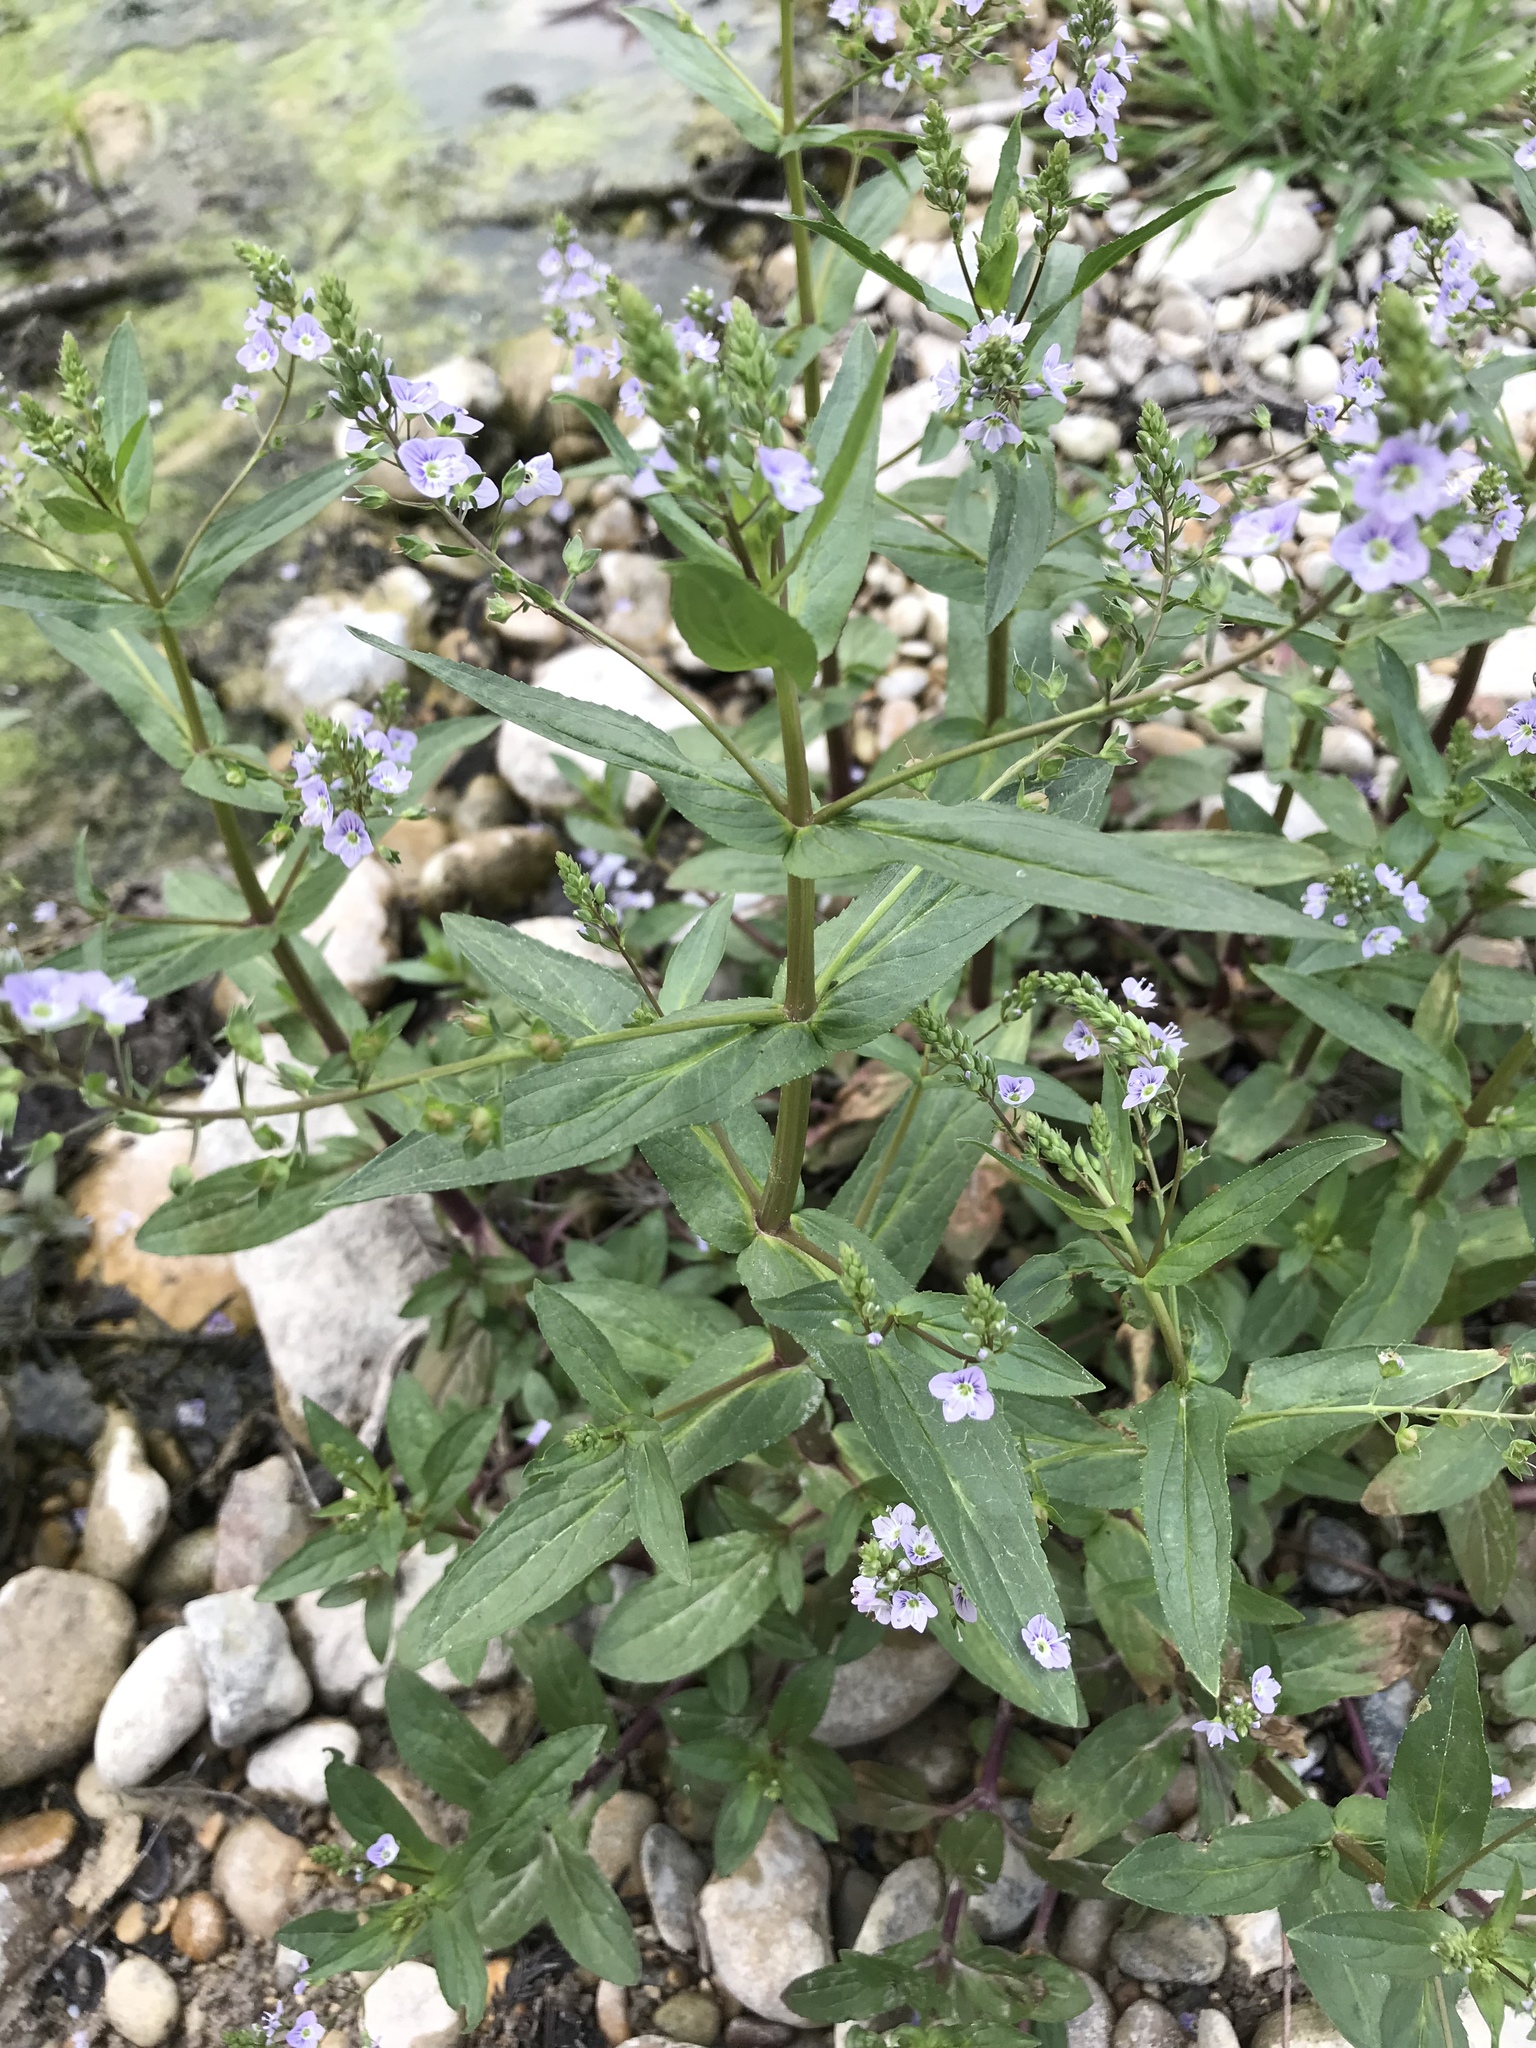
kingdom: Plantae
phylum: Tracheophyta
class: Magnoliopsida
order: Lamiales
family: Plantaginaceae
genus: Veronica
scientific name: Veronica anagallis-aquatica
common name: Water speedwell
